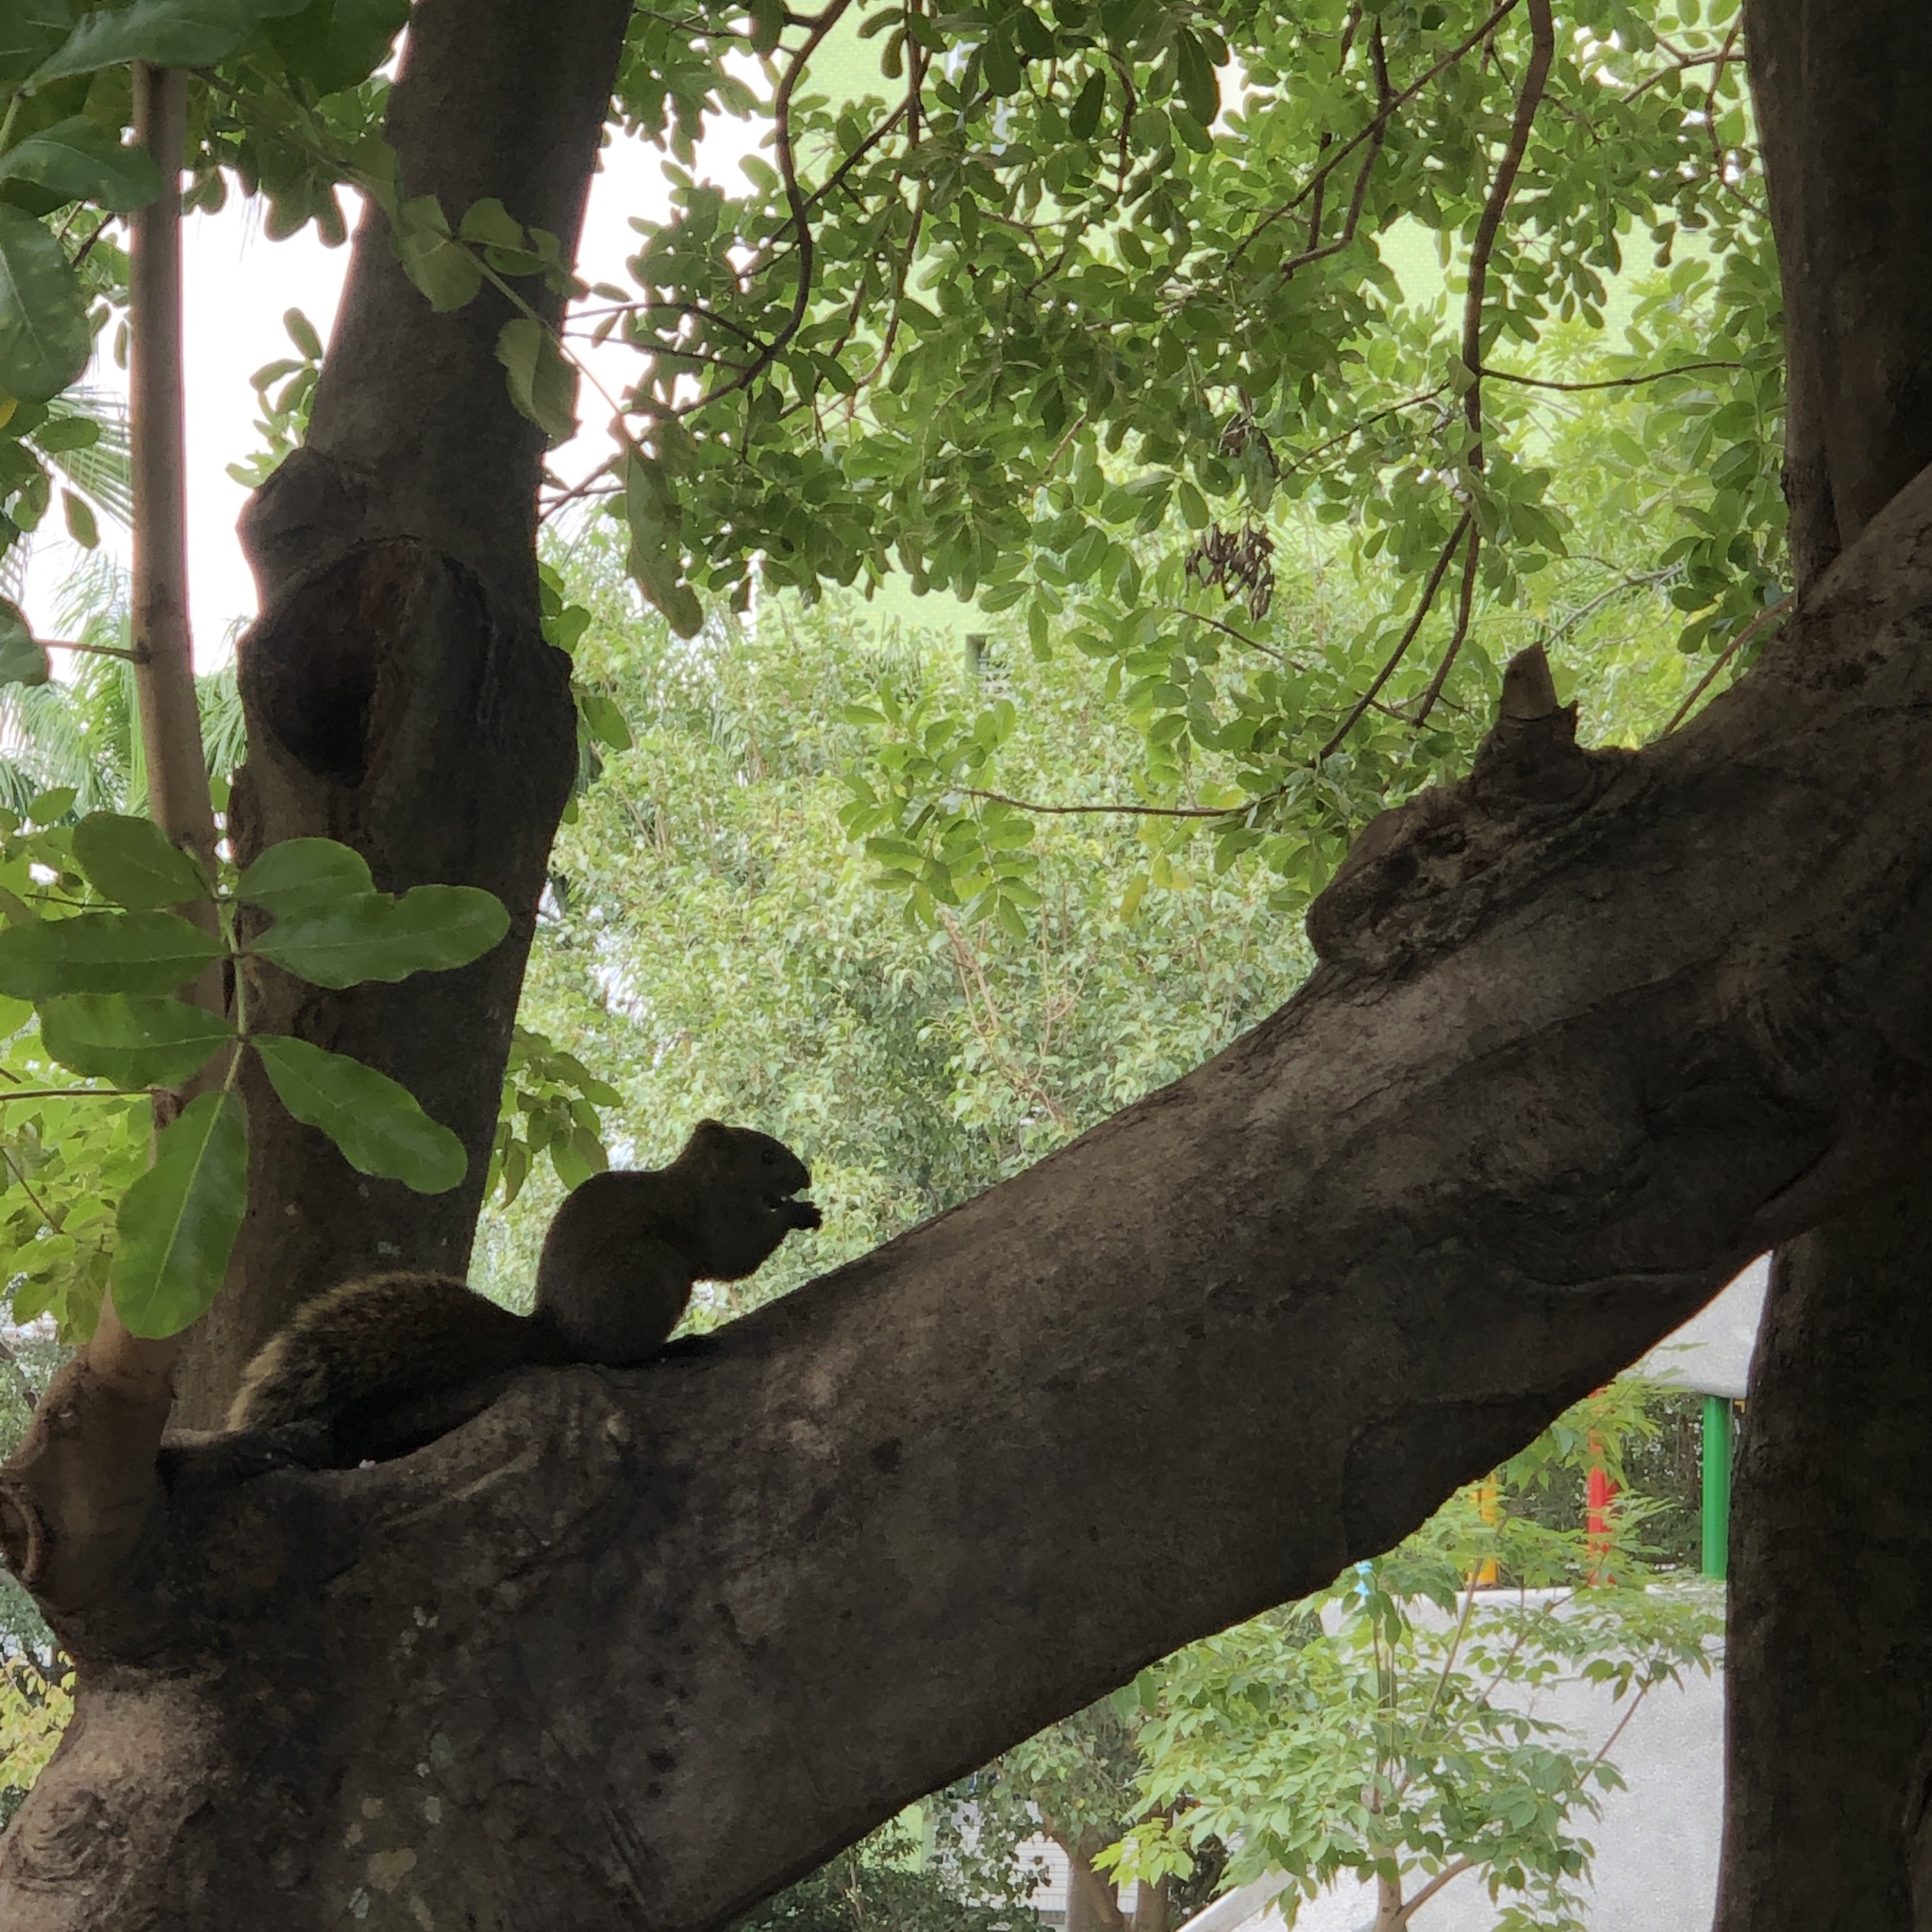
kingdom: Animalia
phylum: Chordata
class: Mammalia
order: Rodentia
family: Sciuridae
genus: Callosciurus
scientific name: Callosciurus erythraeus
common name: Pallas's squirrel
